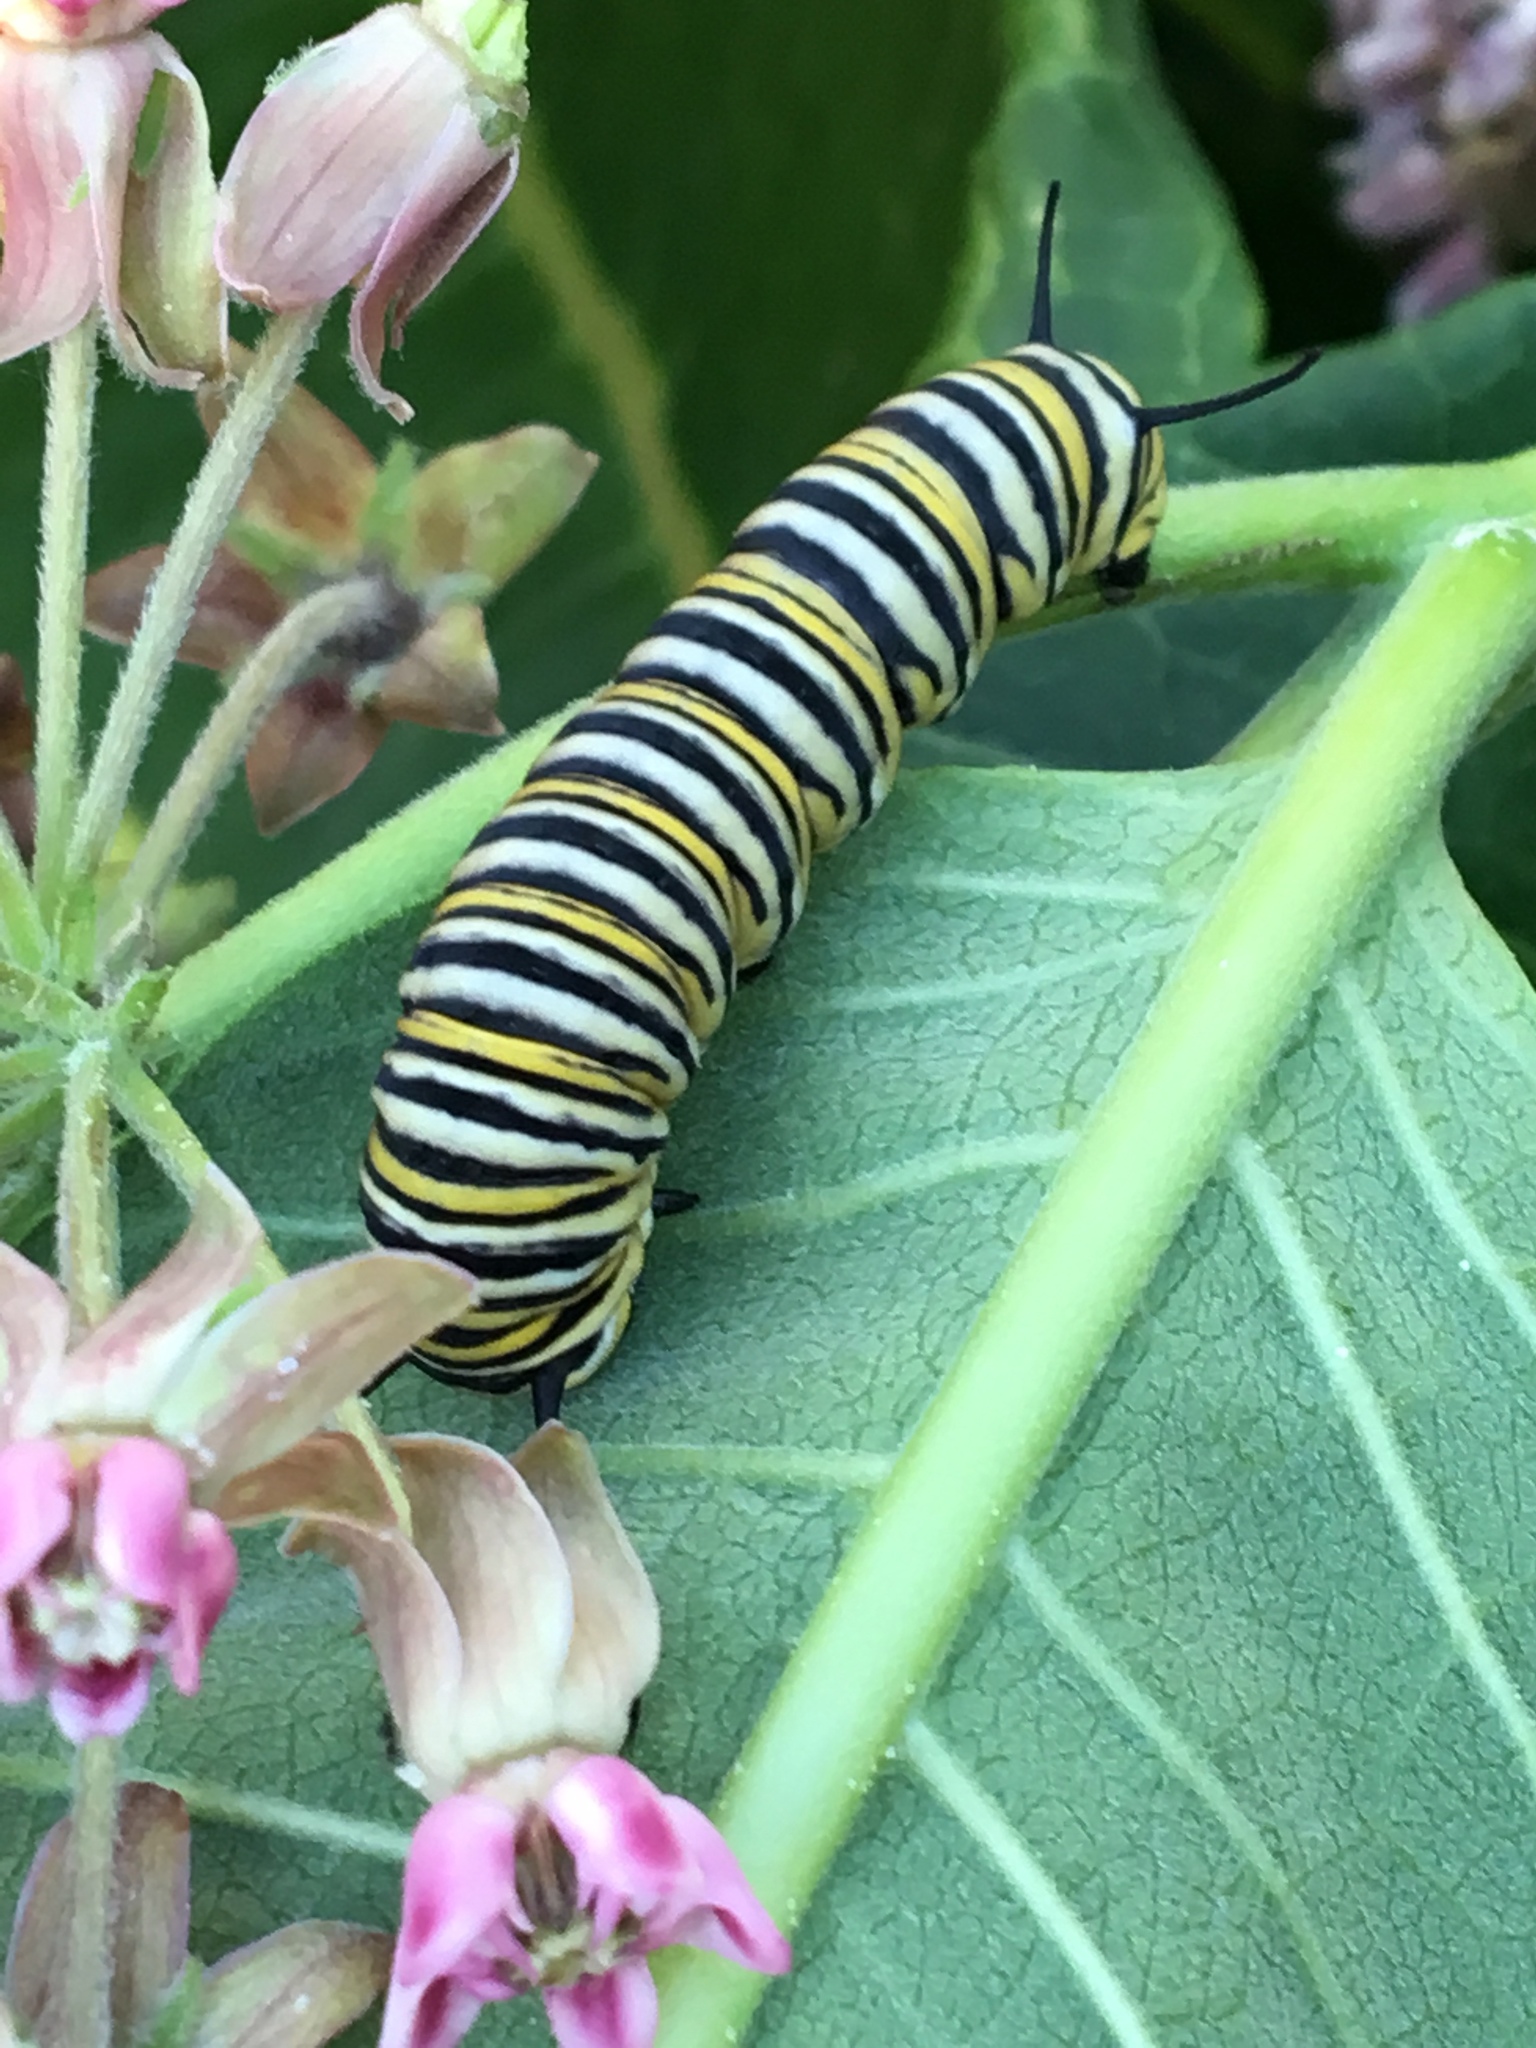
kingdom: Animalia
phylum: Arthropoda
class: Insecta
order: Lepidoptera
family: Nymphalidae
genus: Danaus
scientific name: Danaus plexippus
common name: Monarch
